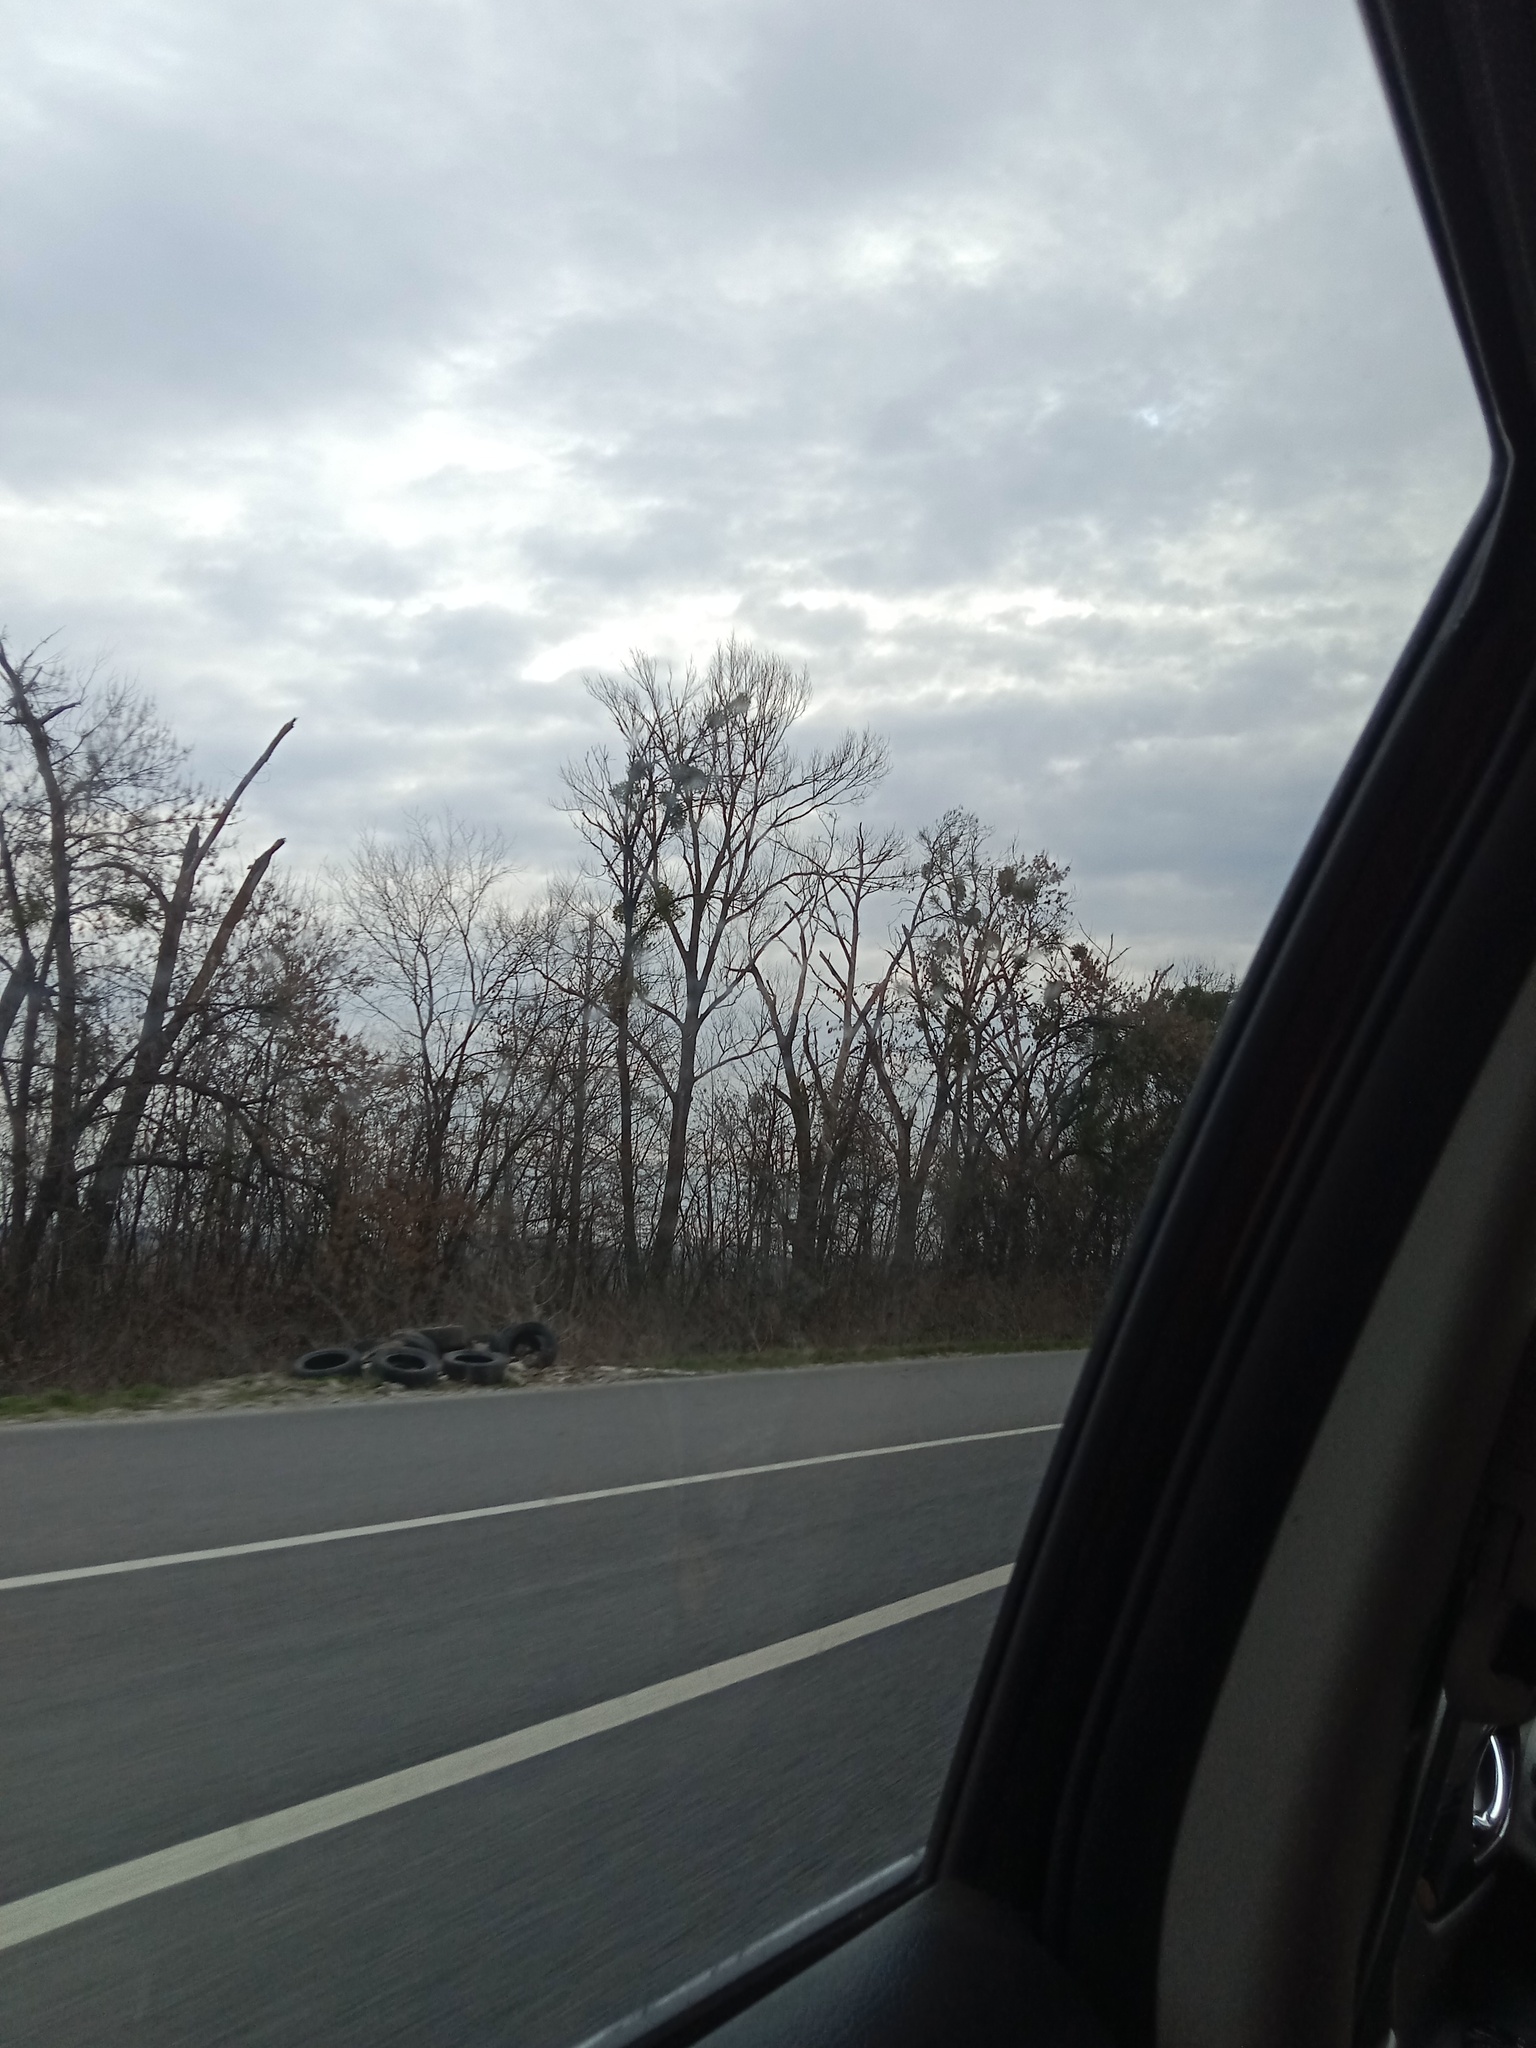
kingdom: Plantae
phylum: Tracheophyta
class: Magnoliopsida
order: Santalales
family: Viscaceae
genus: Viscum
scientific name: Viscum album
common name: Mistletoe
